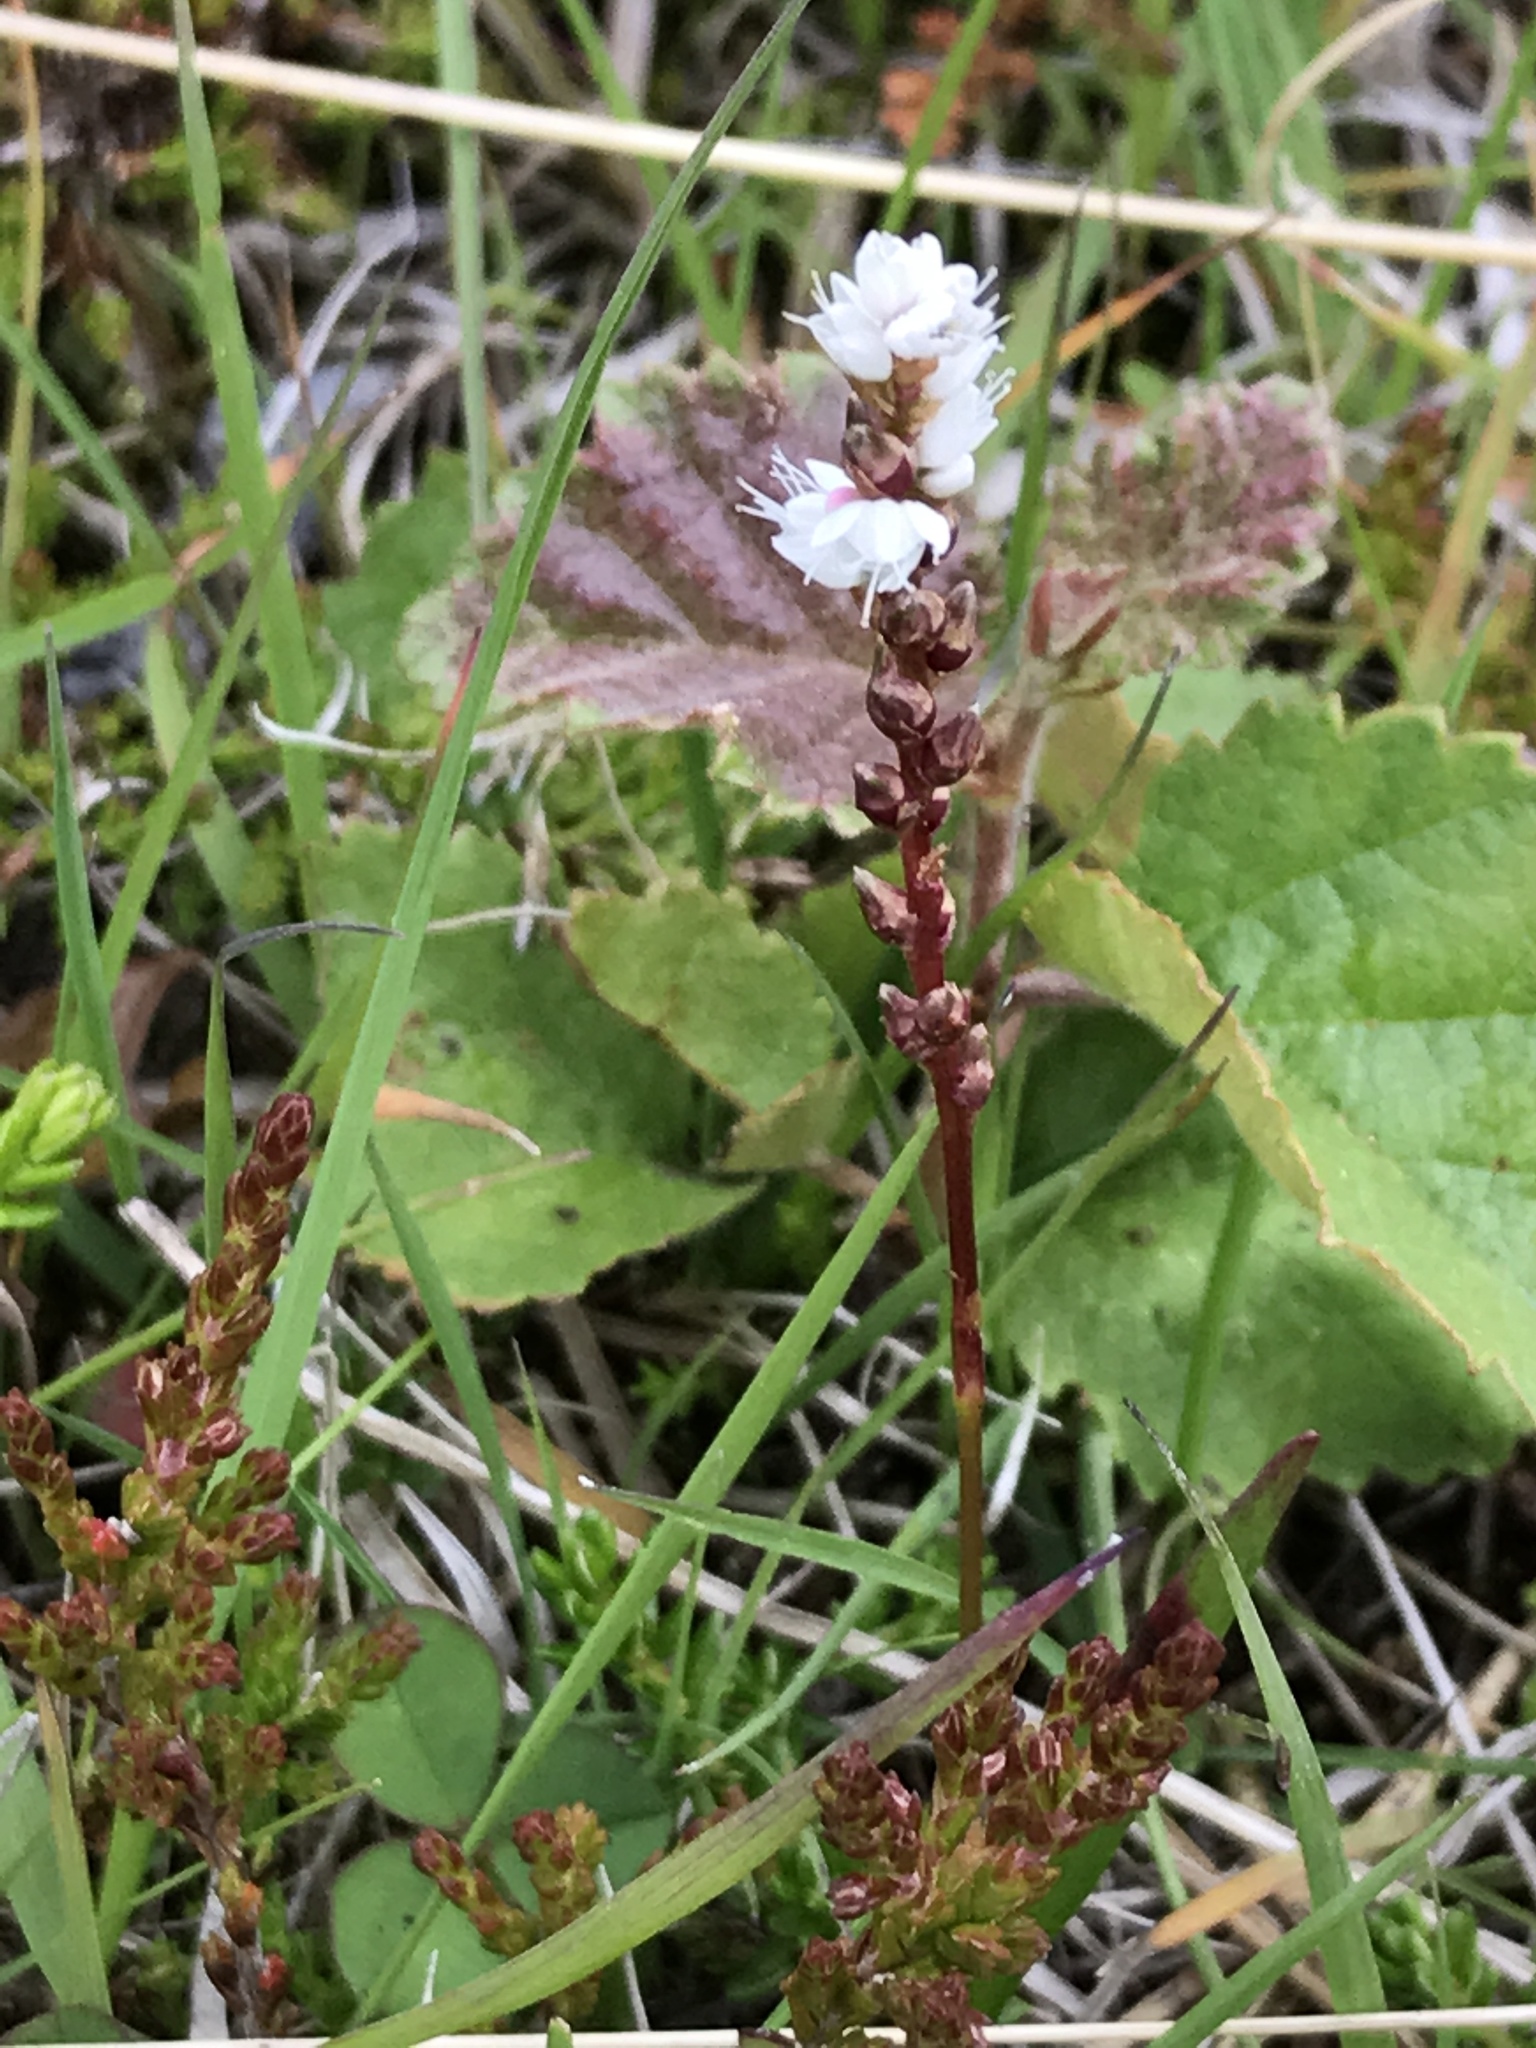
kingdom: Plantae
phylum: Tracheophyta
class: Magnoliopsida
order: Caryophyllales
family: Polygonaceae
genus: Bistorta
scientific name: Bistorta vivipara
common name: Alpine bistort
